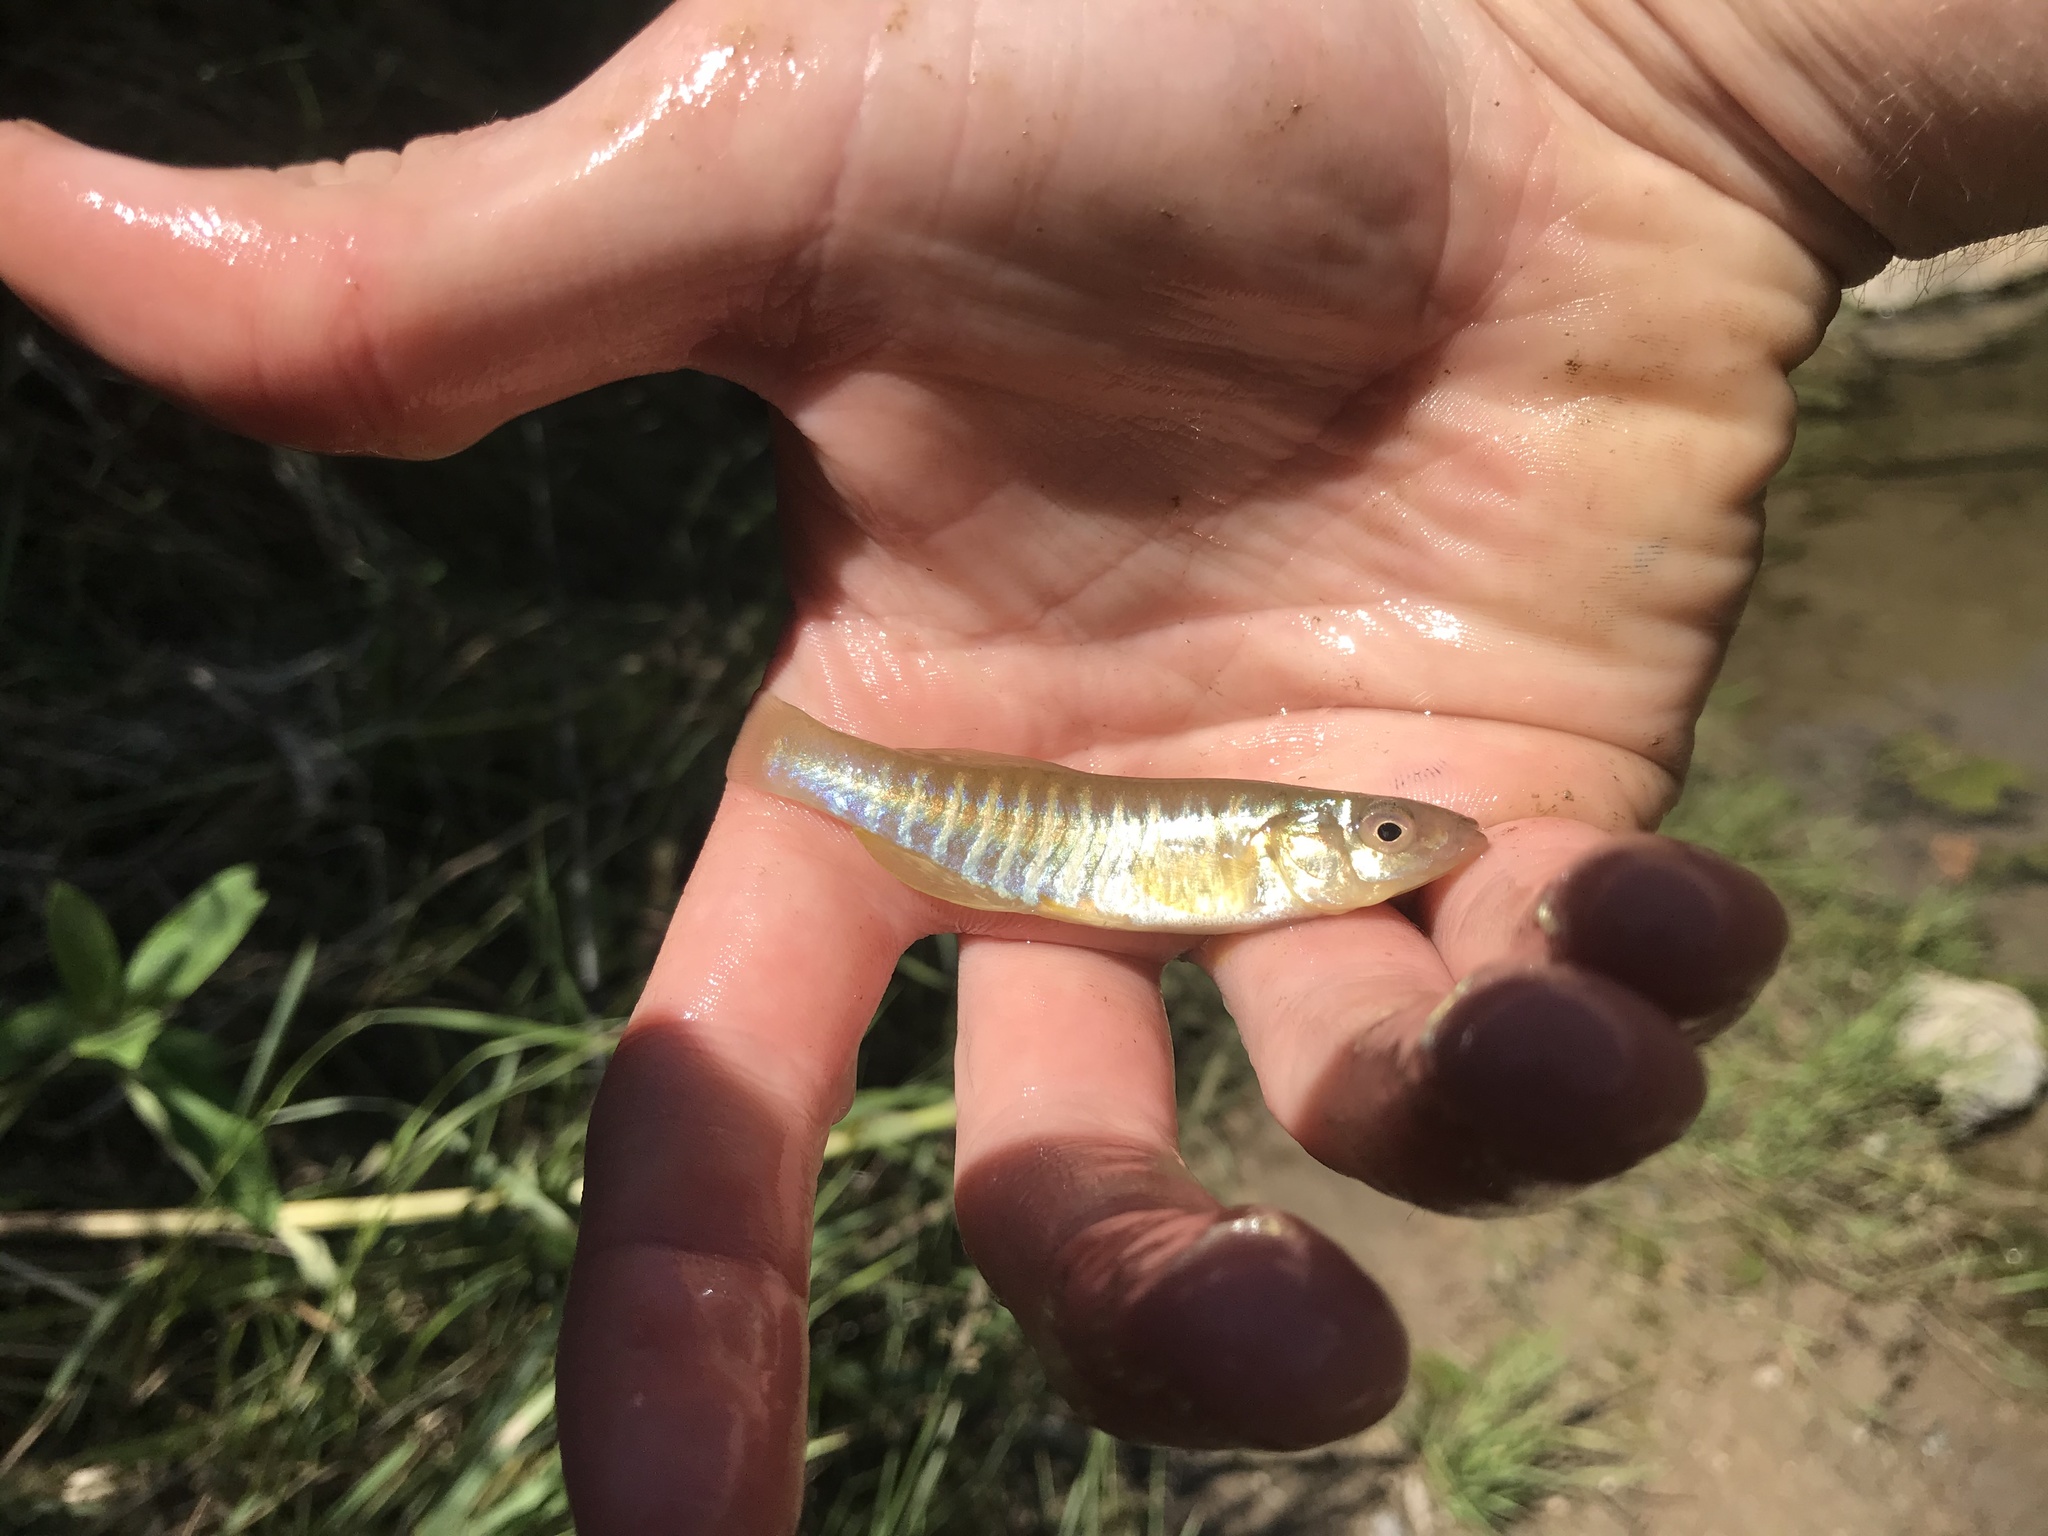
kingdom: Animalia
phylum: Chordata
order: Cyprinodontiformes
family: Fundulidae
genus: Fundulus
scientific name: Fundulus diaphanus
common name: Banded killifish
